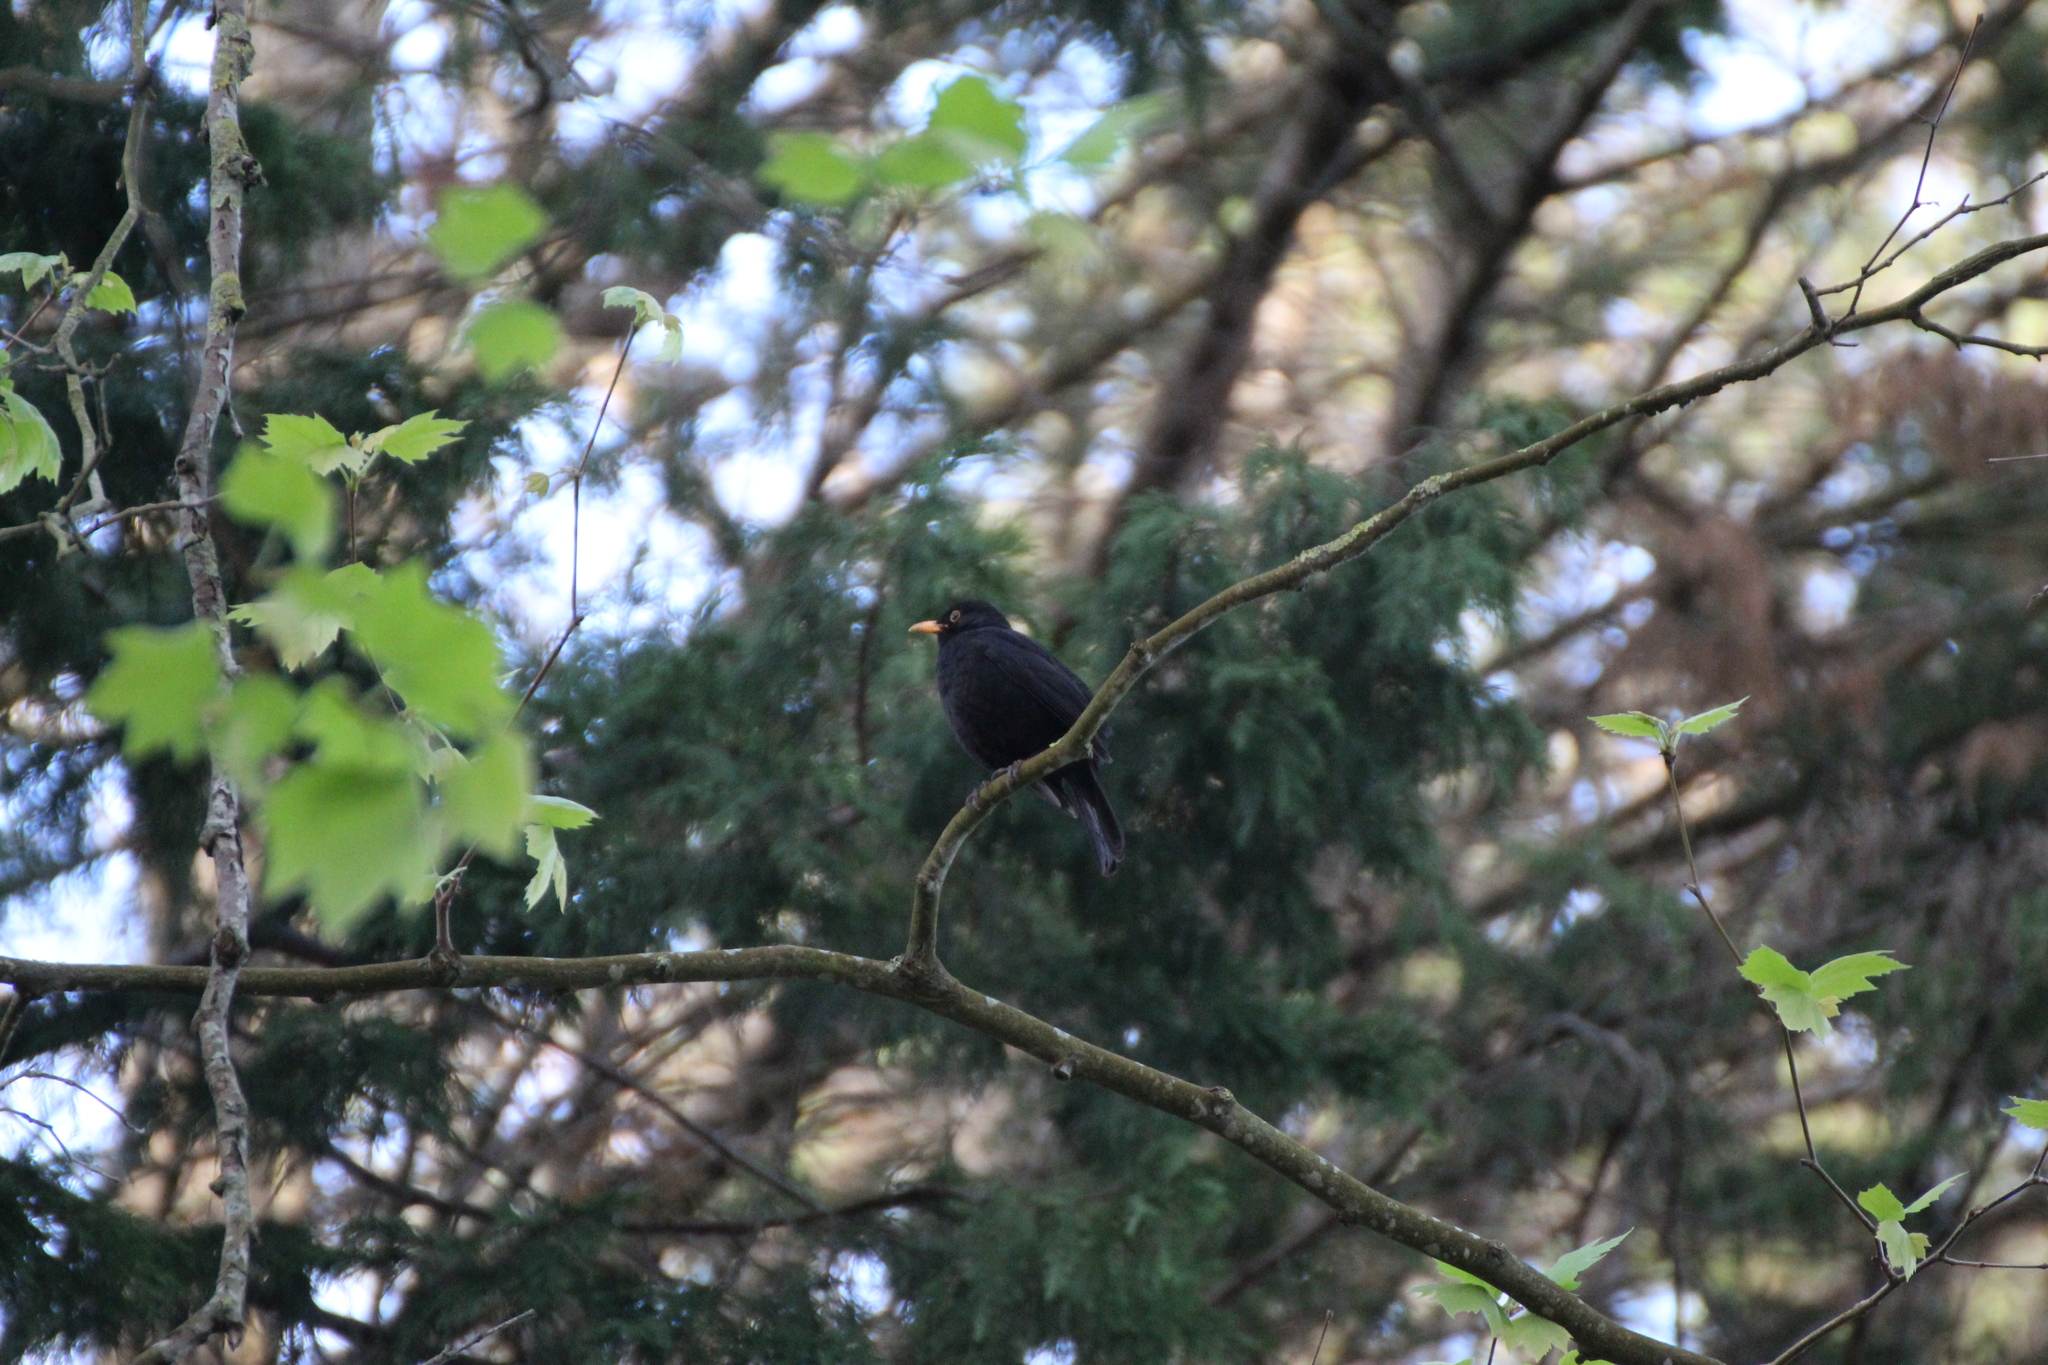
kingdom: Animalia
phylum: Chordata
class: Aves
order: Passeriformes
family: Turdidae
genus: Turdus
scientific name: Turdus merula
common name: Common blackbird
